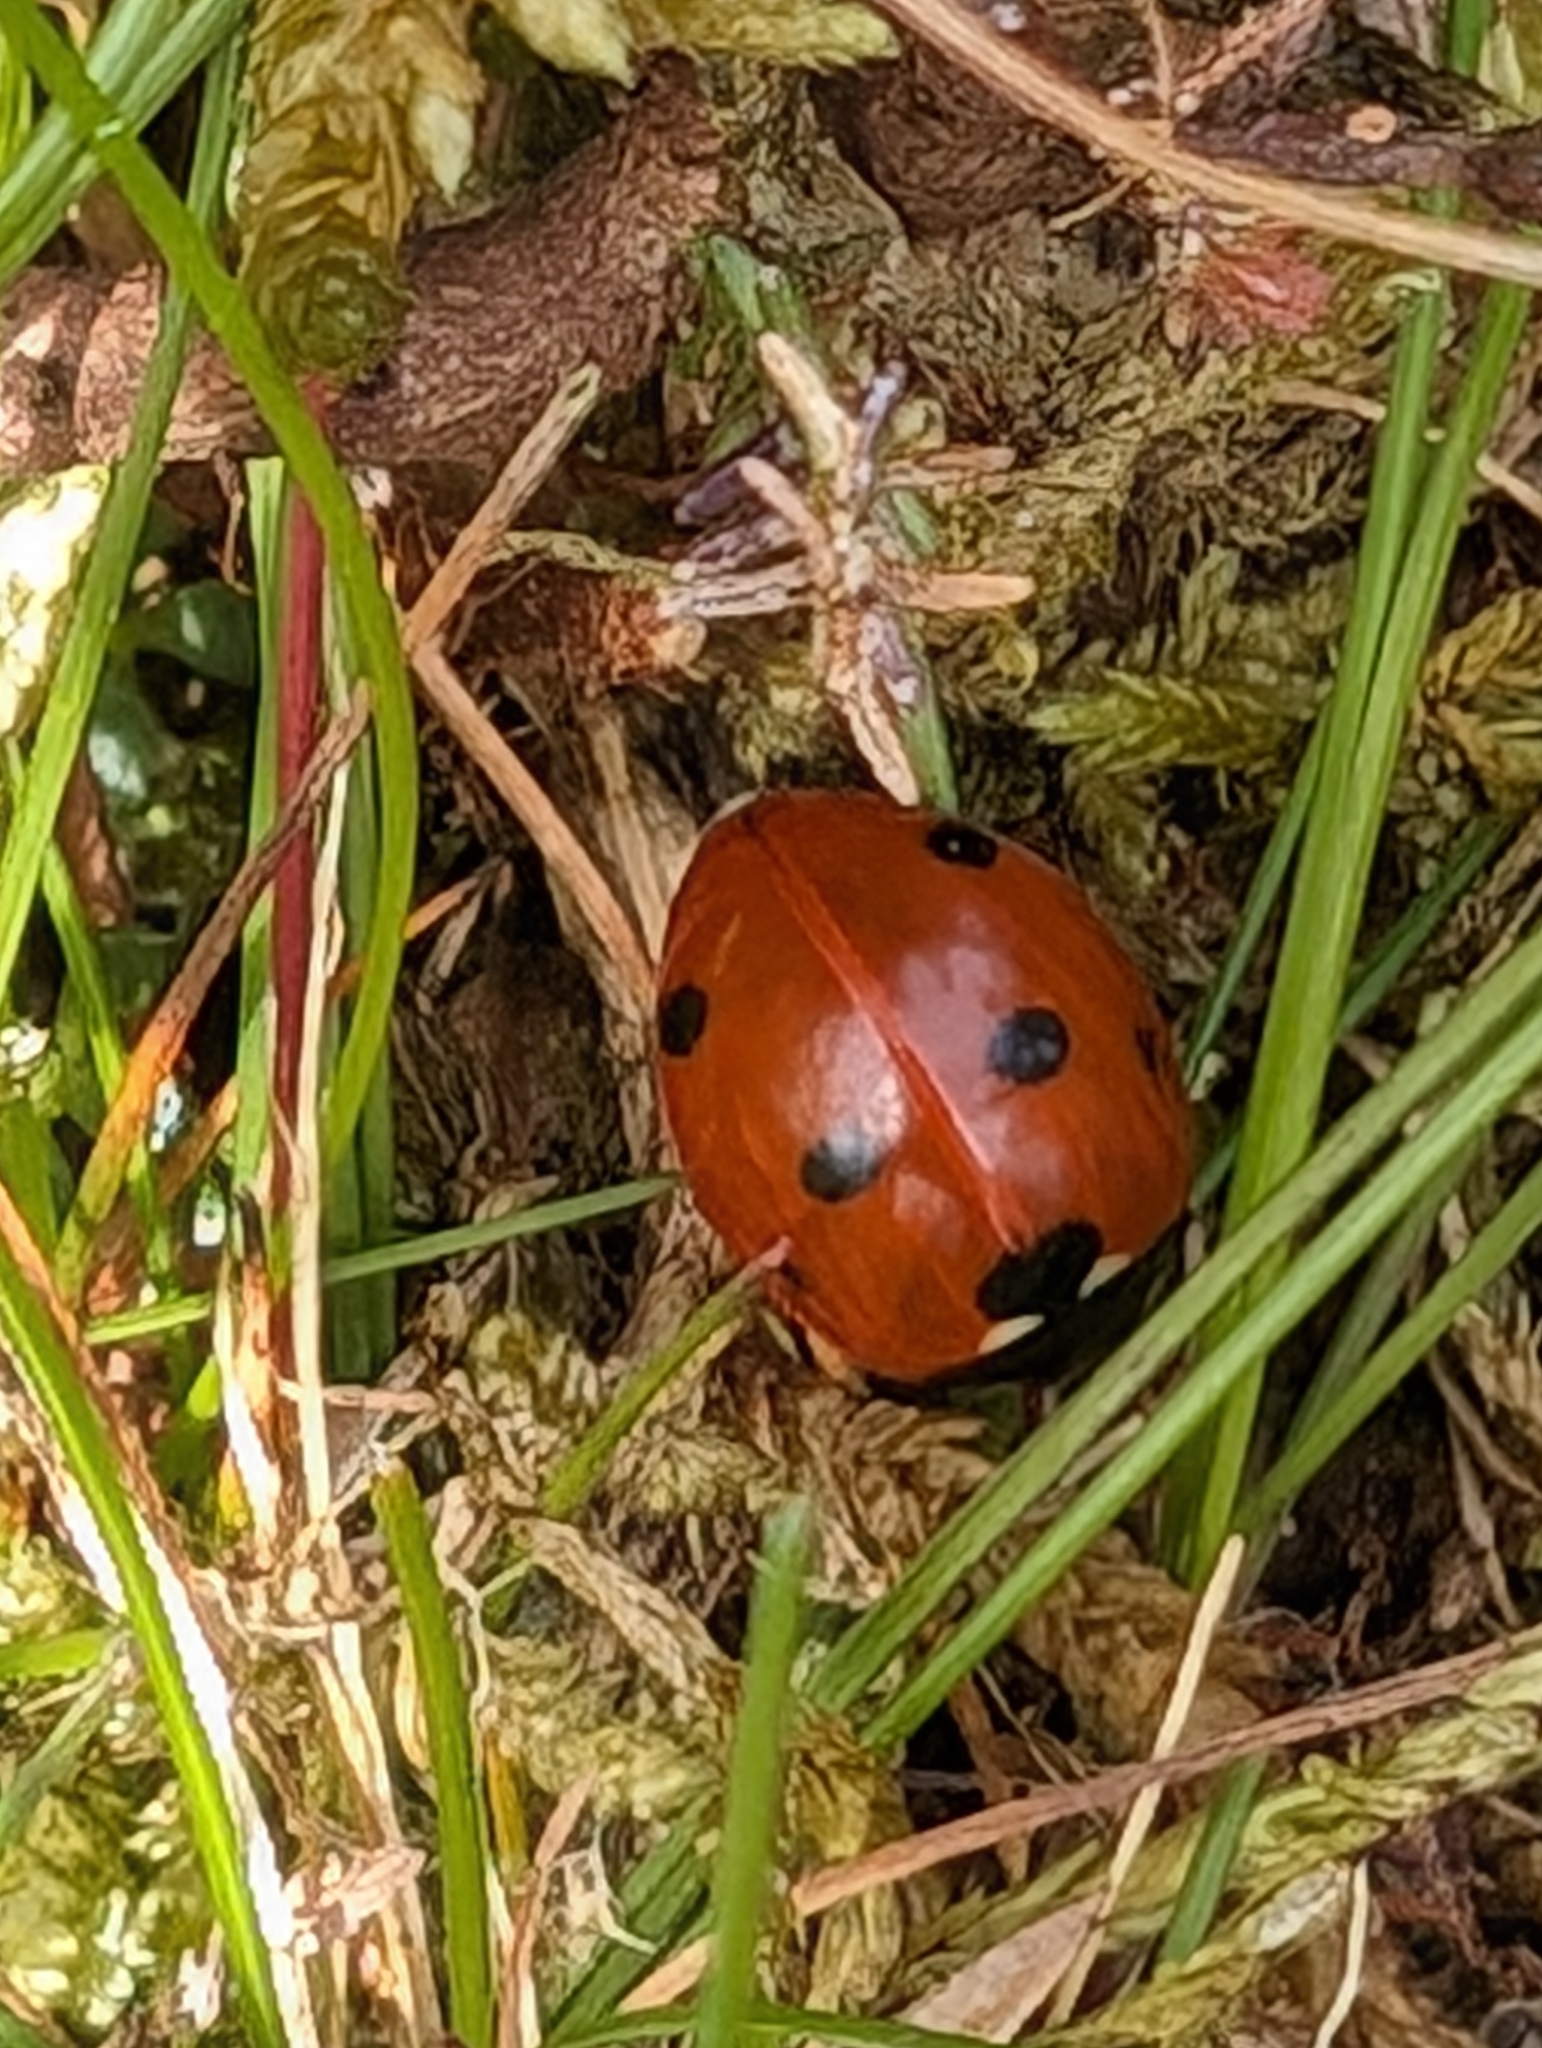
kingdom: Animalia
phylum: Arthropoda
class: Insecta
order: Coleoptera
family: Coccinellidae
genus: Coccinella
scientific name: Coccinella septempunctata
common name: Sevenspotted lady beetle
